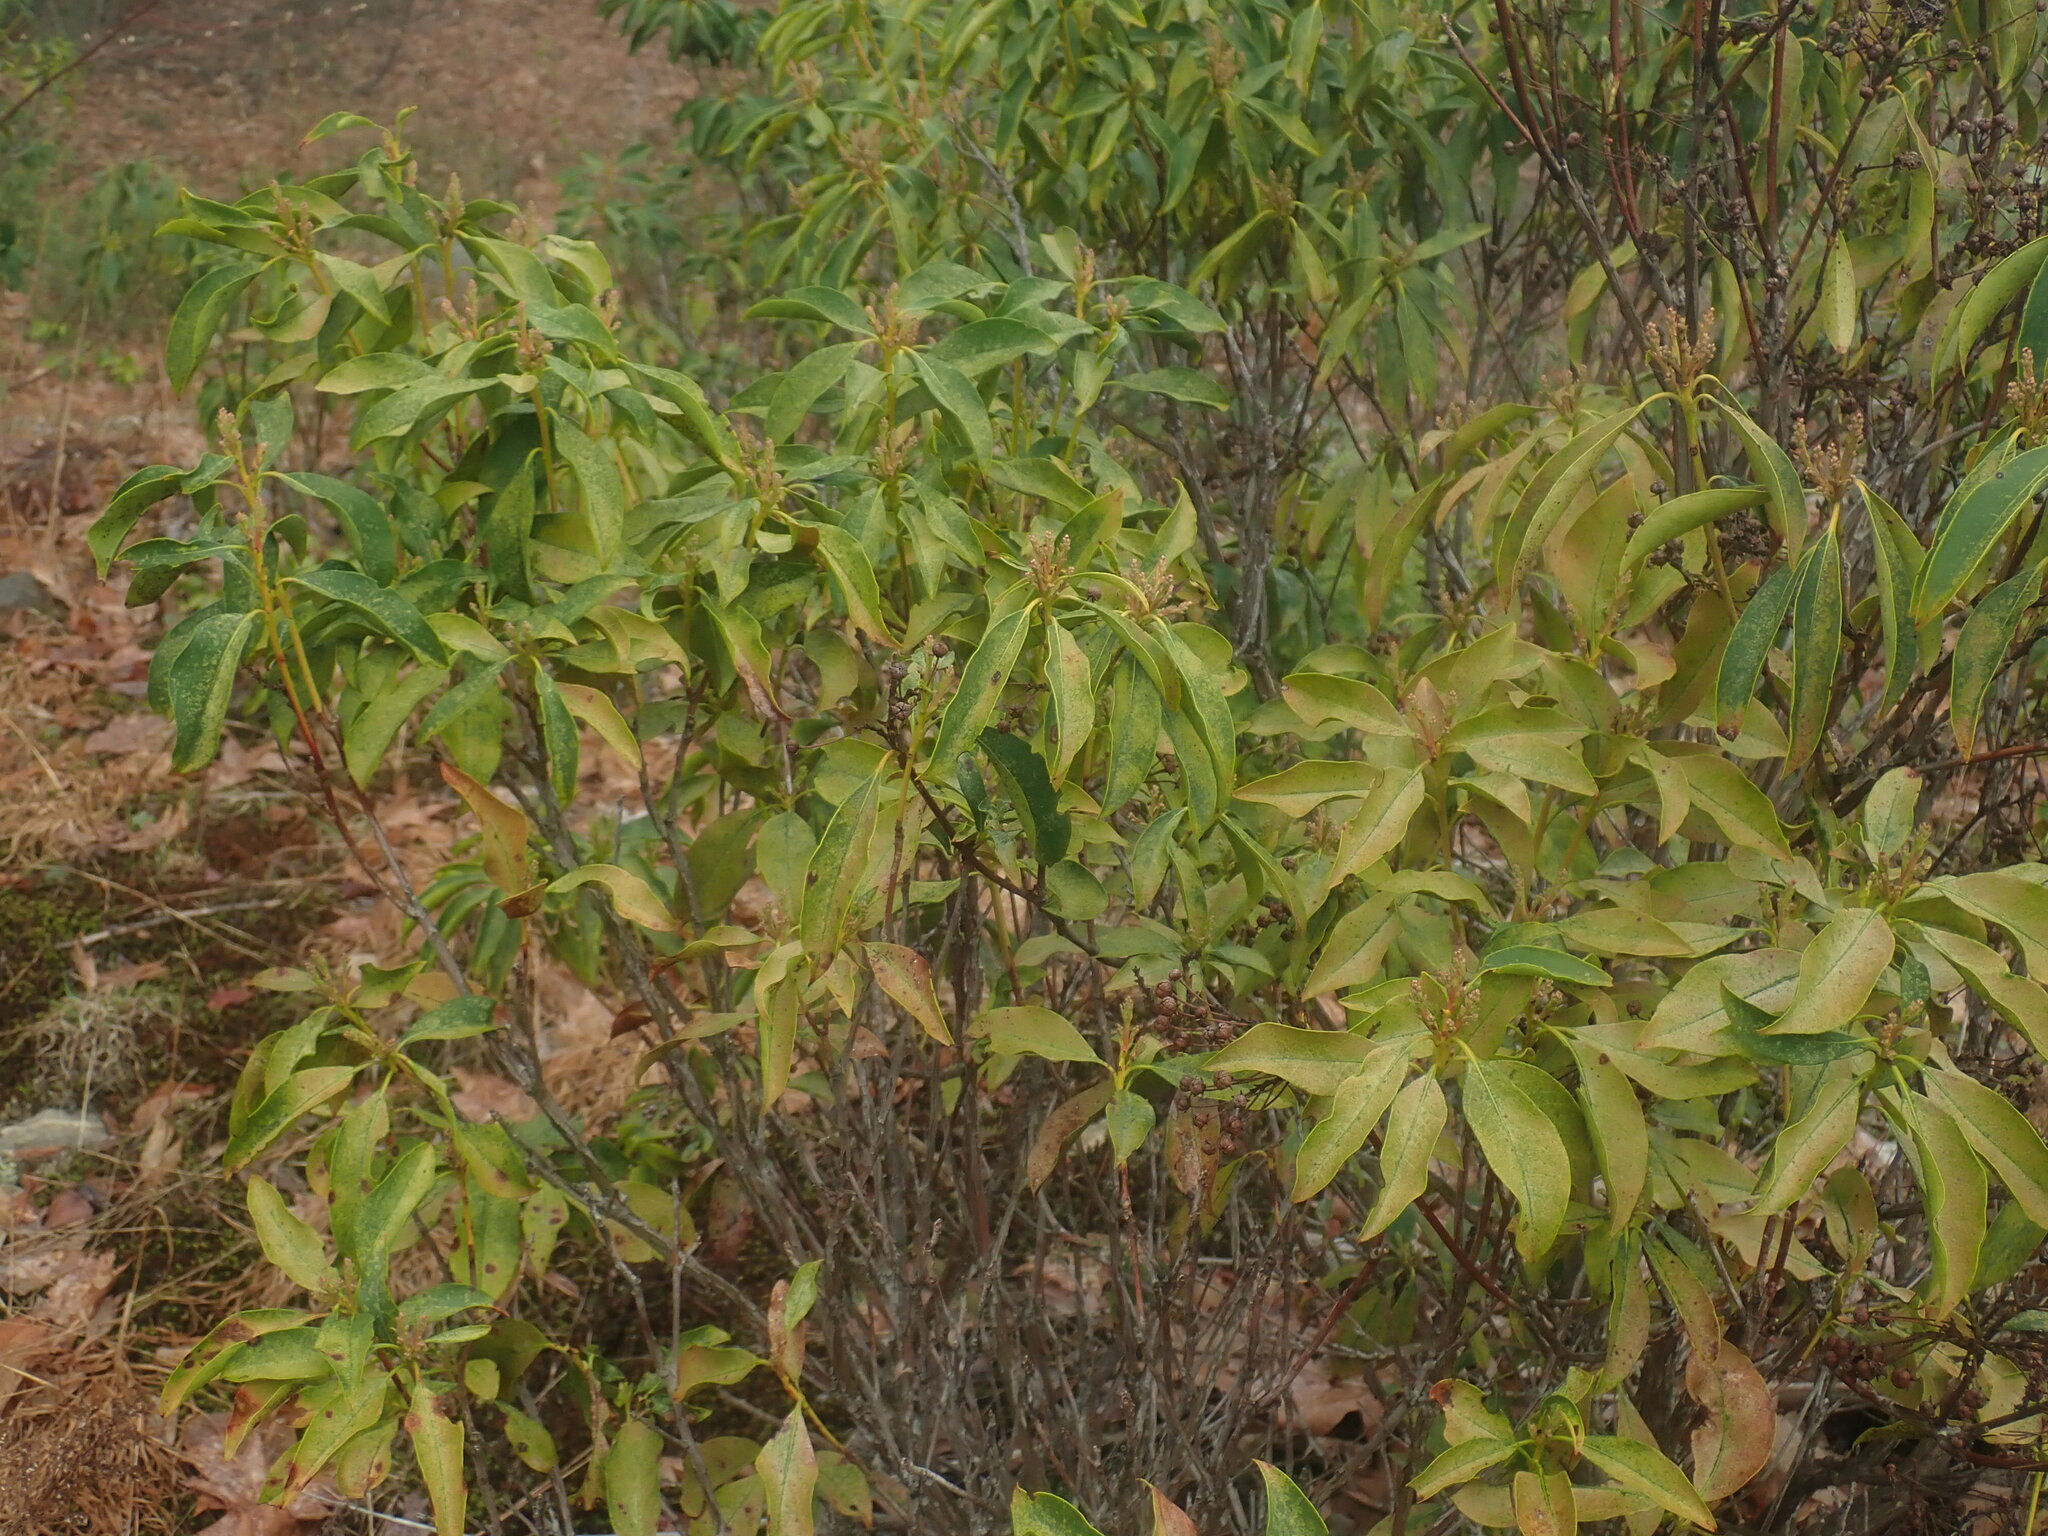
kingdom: Plantae
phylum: Tracheophyta
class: Magnoliopsida
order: Ericales
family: Ericaceae
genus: Kalmia
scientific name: Kalmia latifolia
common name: Mountain-laurel
